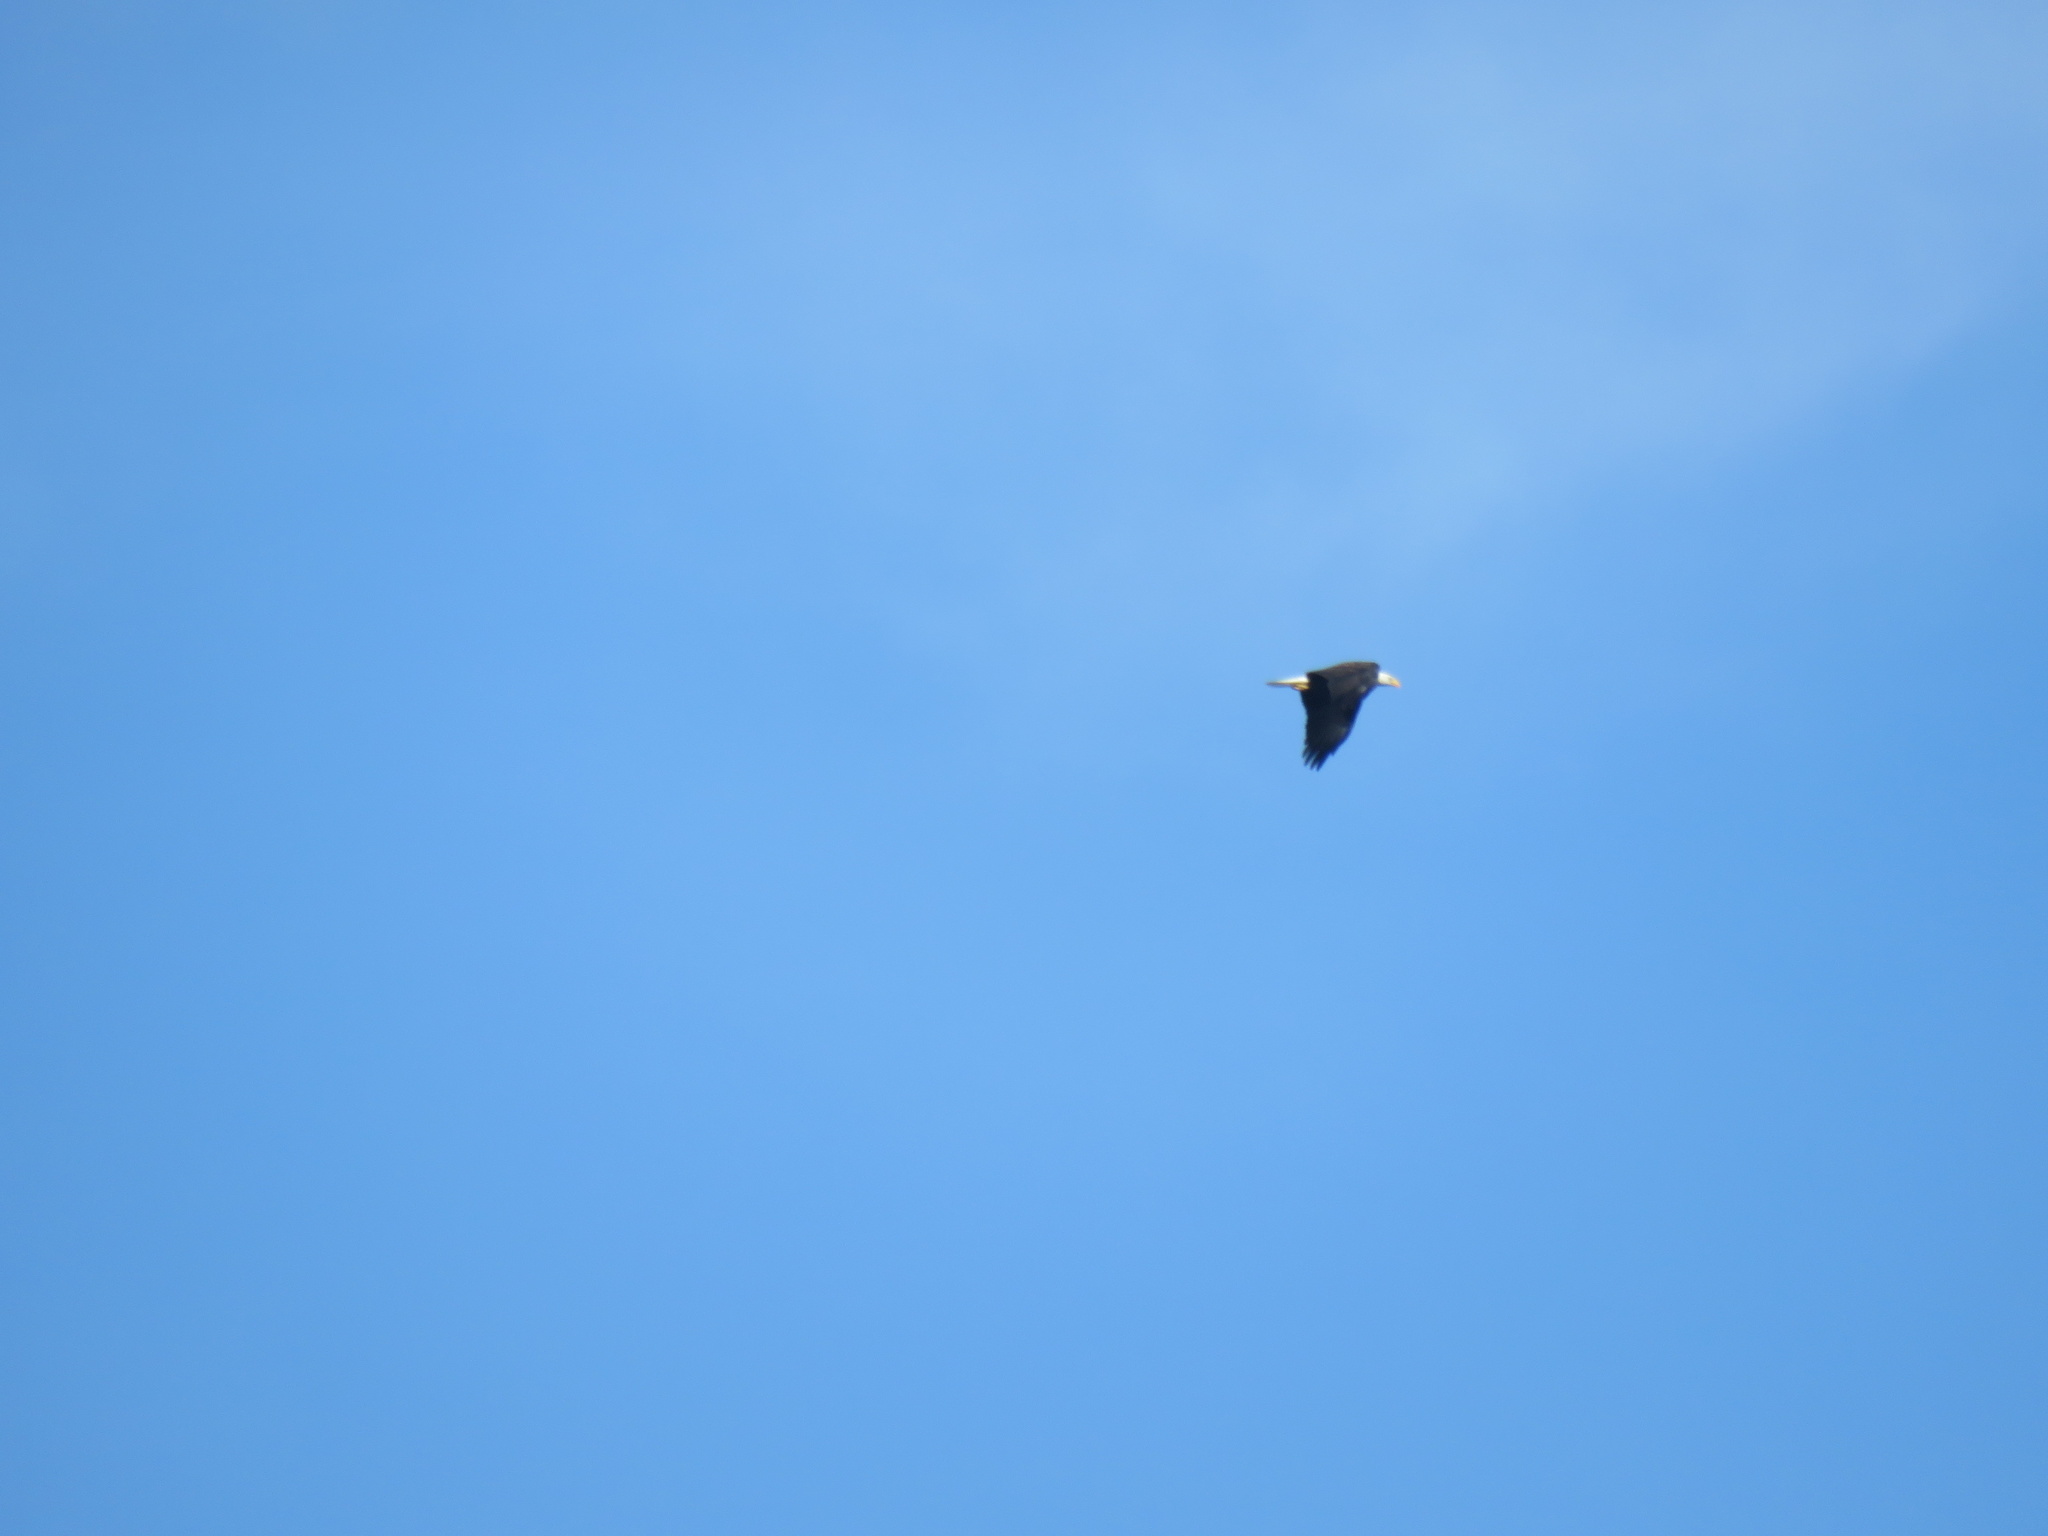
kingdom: Animalia
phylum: Chordata
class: Aves
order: Accipitriformes
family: Accipitridae
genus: Haliaeetus
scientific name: Haliaeetus leucocephalus
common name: Bald eagle
